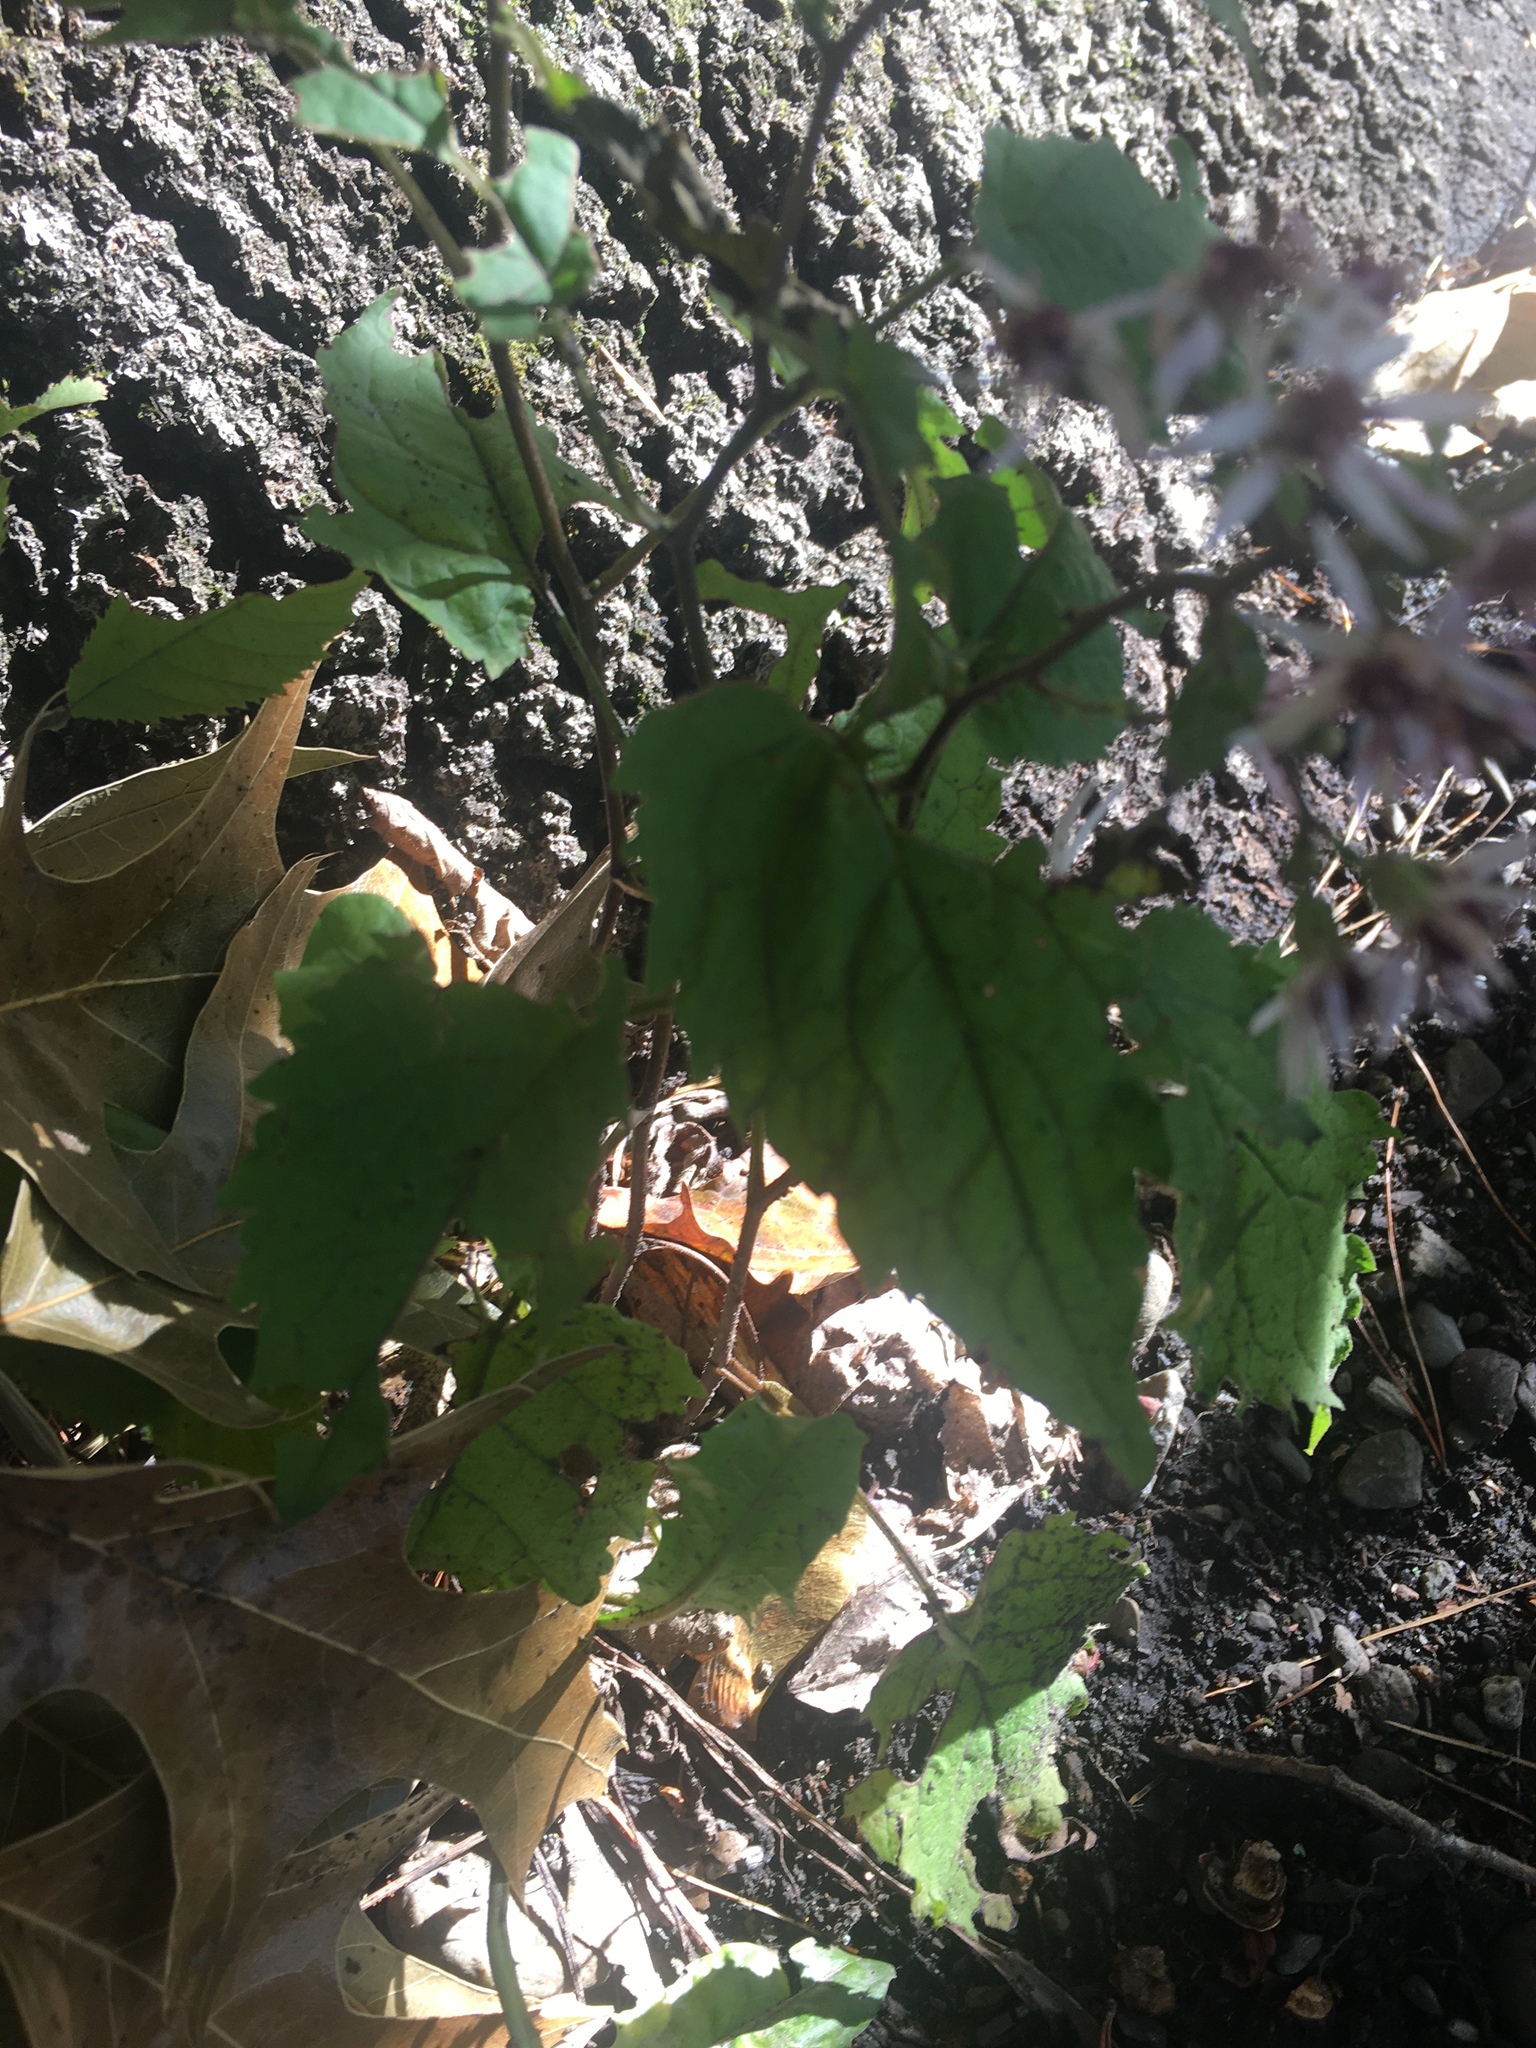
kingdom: Plantae
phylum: Tracheophyta
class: Magnoliopsida
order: Asterales
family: Asteraceae
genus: Eurybia
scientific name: Eurybia divaricata
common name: White wood aster
